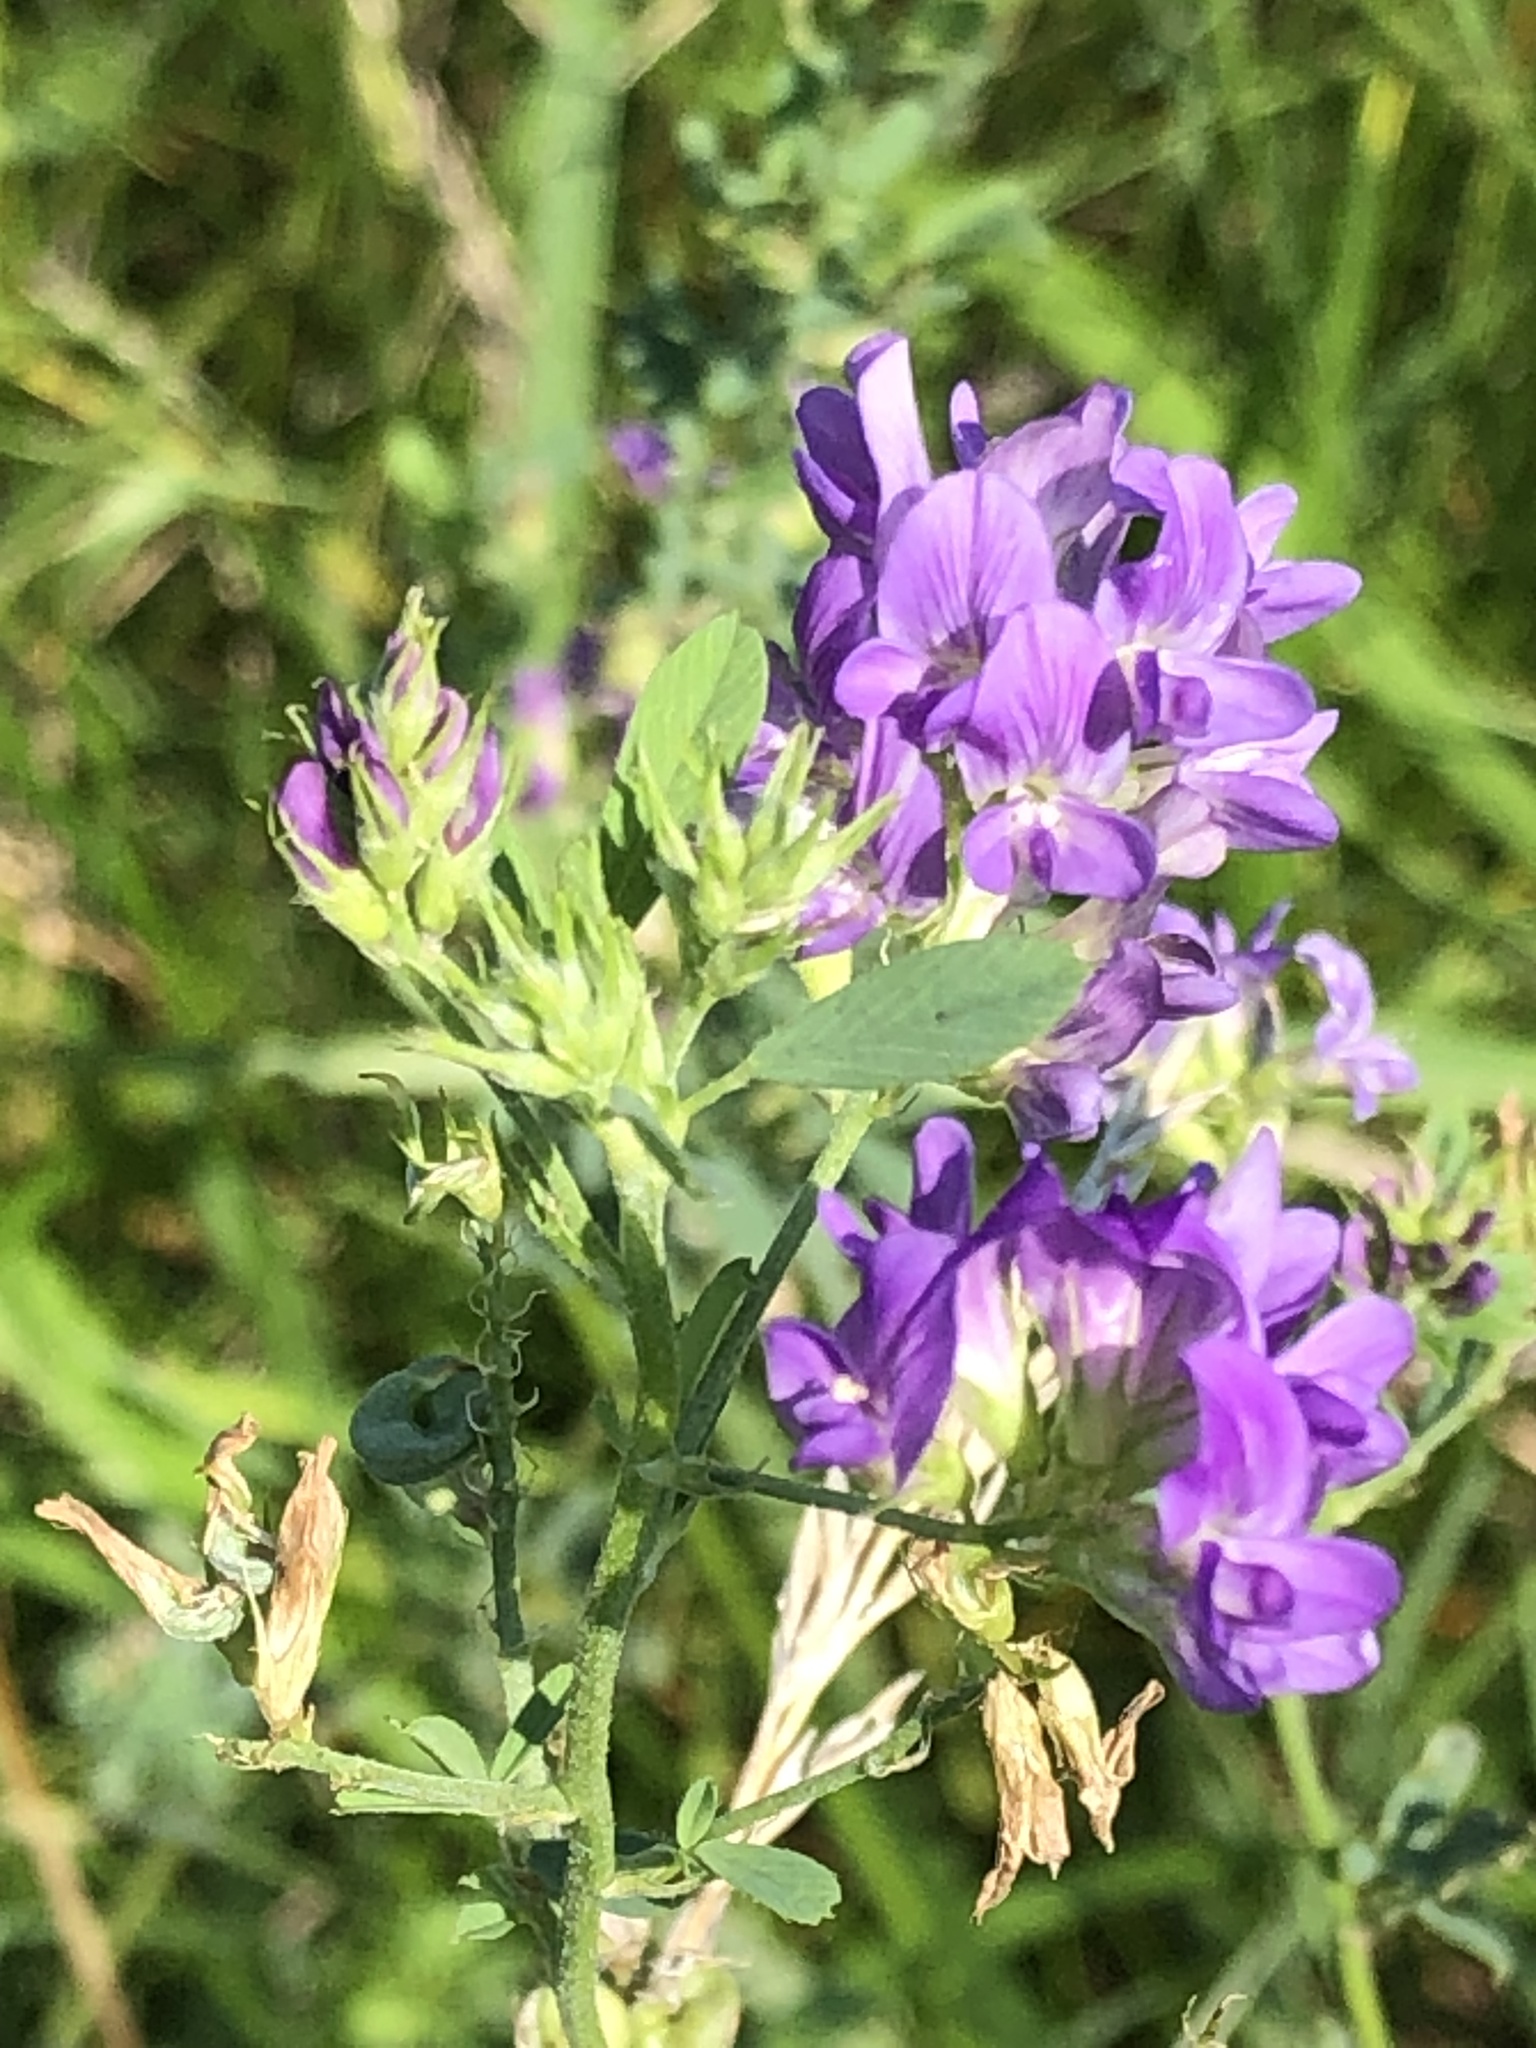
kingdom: Plantae
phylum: Tracheophyta
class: Magnoliopsida
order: Fabales
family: Fabaceae
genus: Medicago
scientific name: Medicago sativa
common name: Alfalfa
